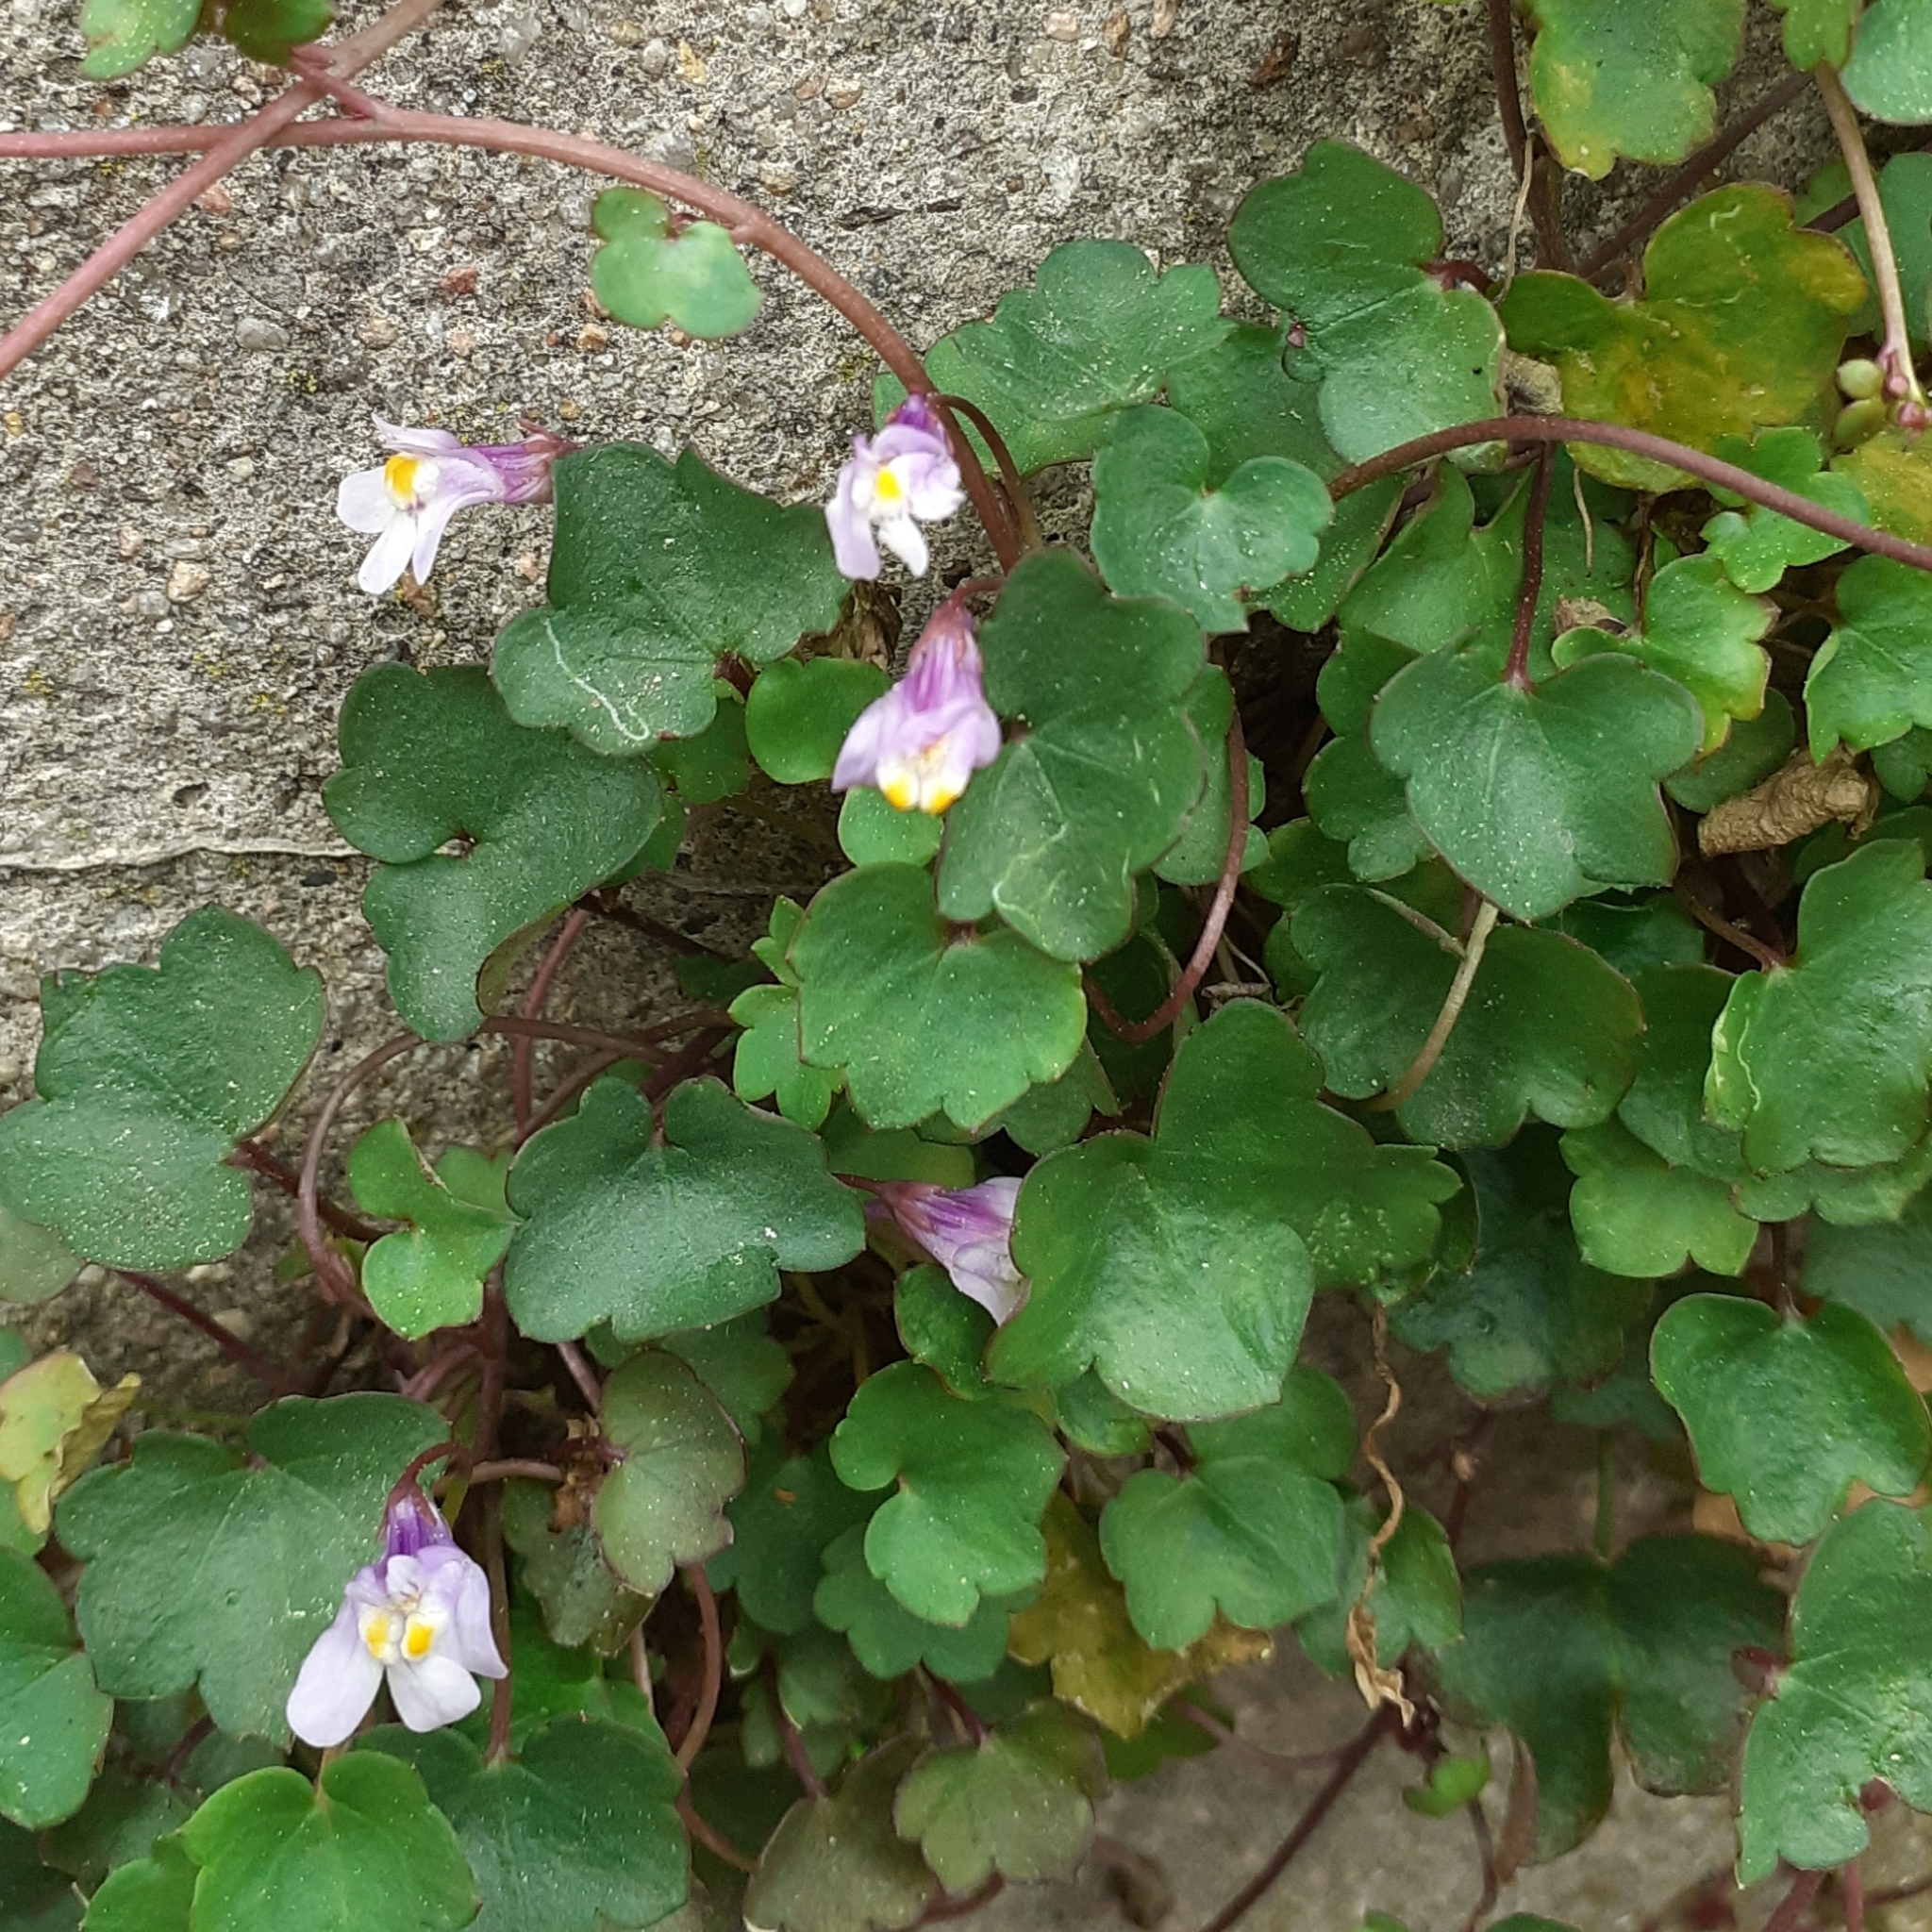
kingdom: Plantae
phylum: Tracheophyta
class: Magnoliopsida
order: Lamiales
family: Plantaginaceae
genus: Cymbalaria
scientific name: Cymbalaria muralis
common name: Ivy-leaved toadflax
